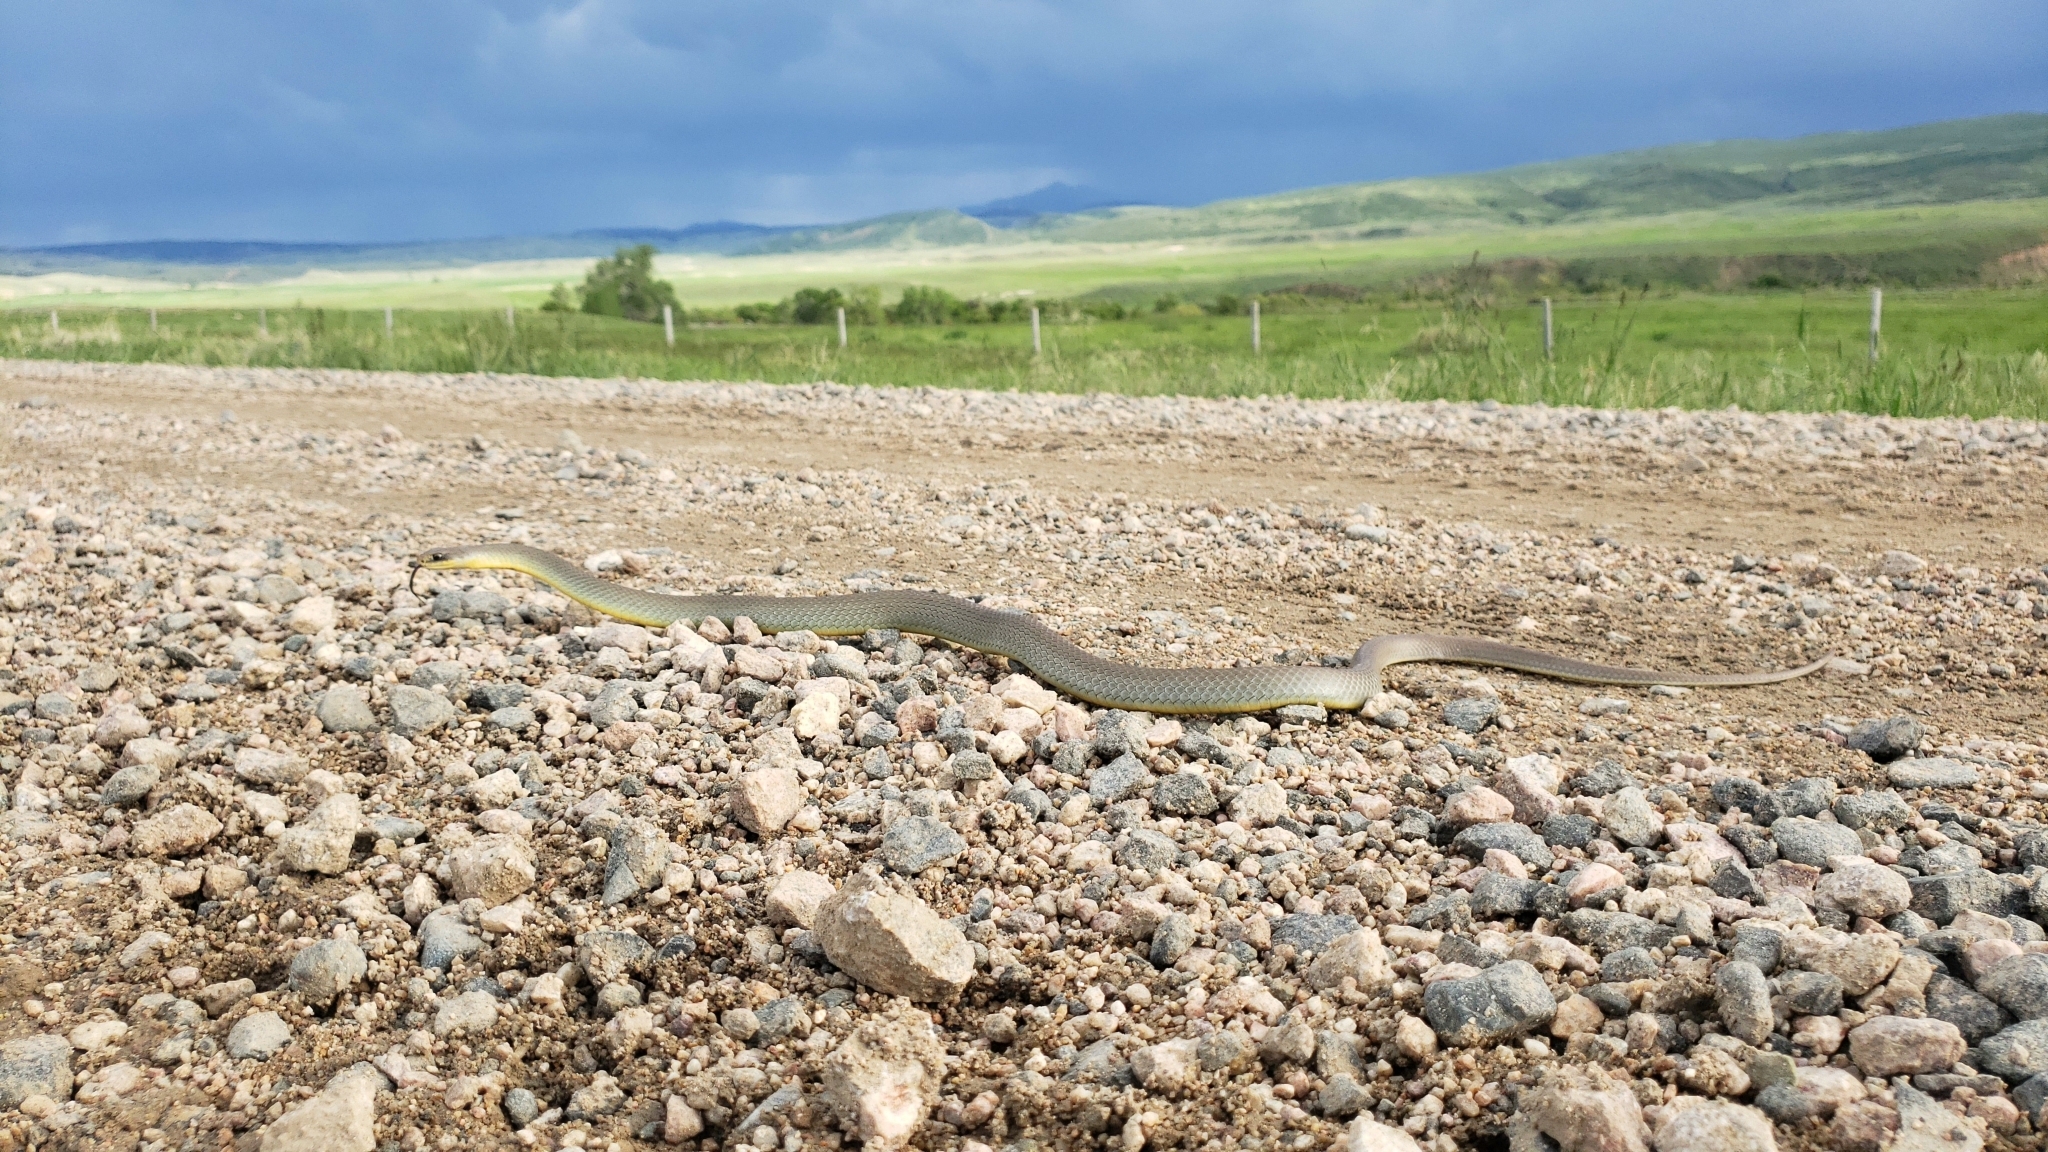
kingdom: Animalia
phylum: Chordata
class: Squamata
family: Colubridae
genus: Coluber
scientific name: Coluber constrictor
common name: Eastern racer
